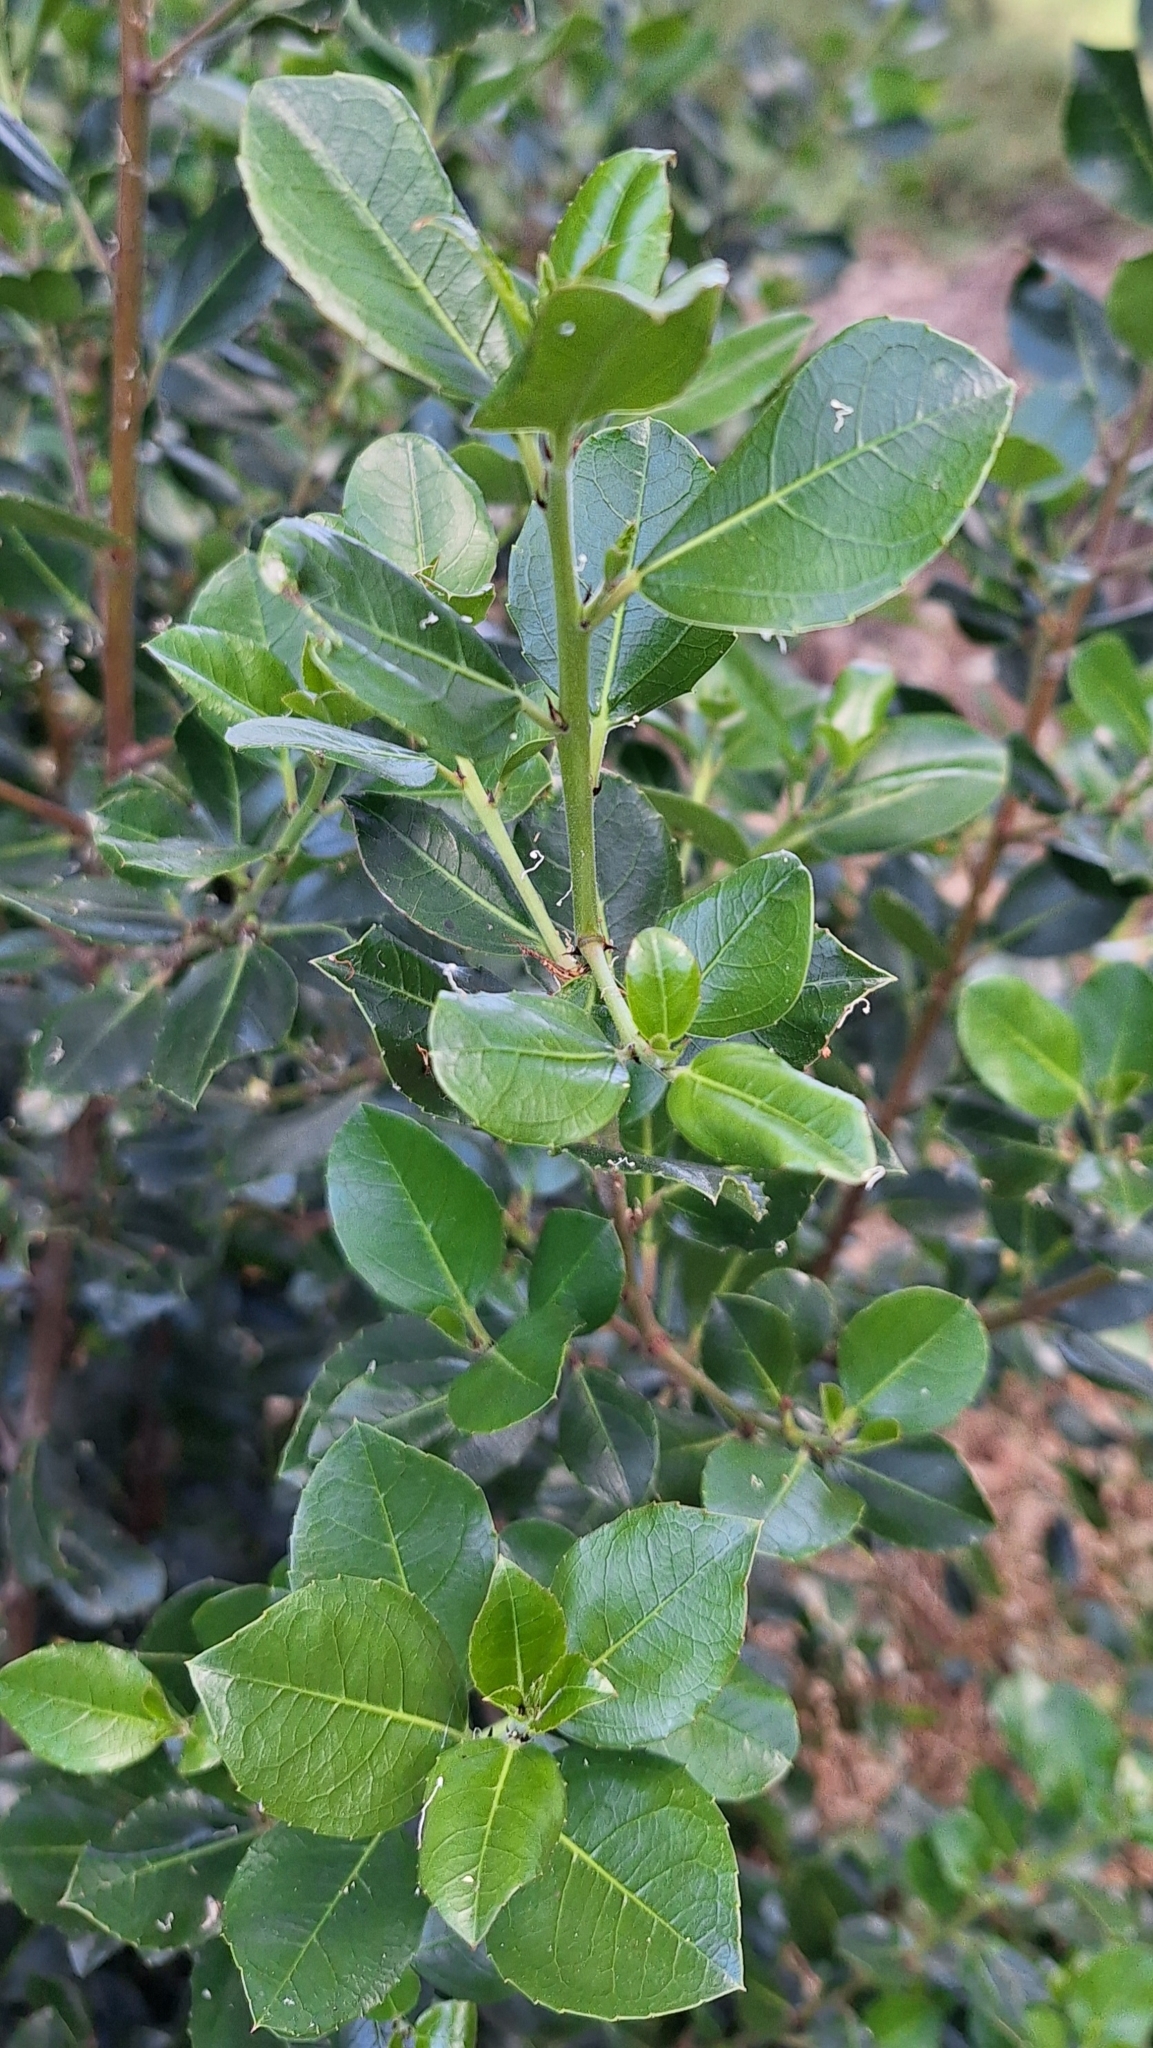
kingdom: Plantae
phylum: Tracheophyta
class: Magnoliopsida
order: Rosales
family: Rhamnaceae
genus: Rhamnus
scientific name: Rhamnus alaternus
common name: Mediterranean buckthorn
